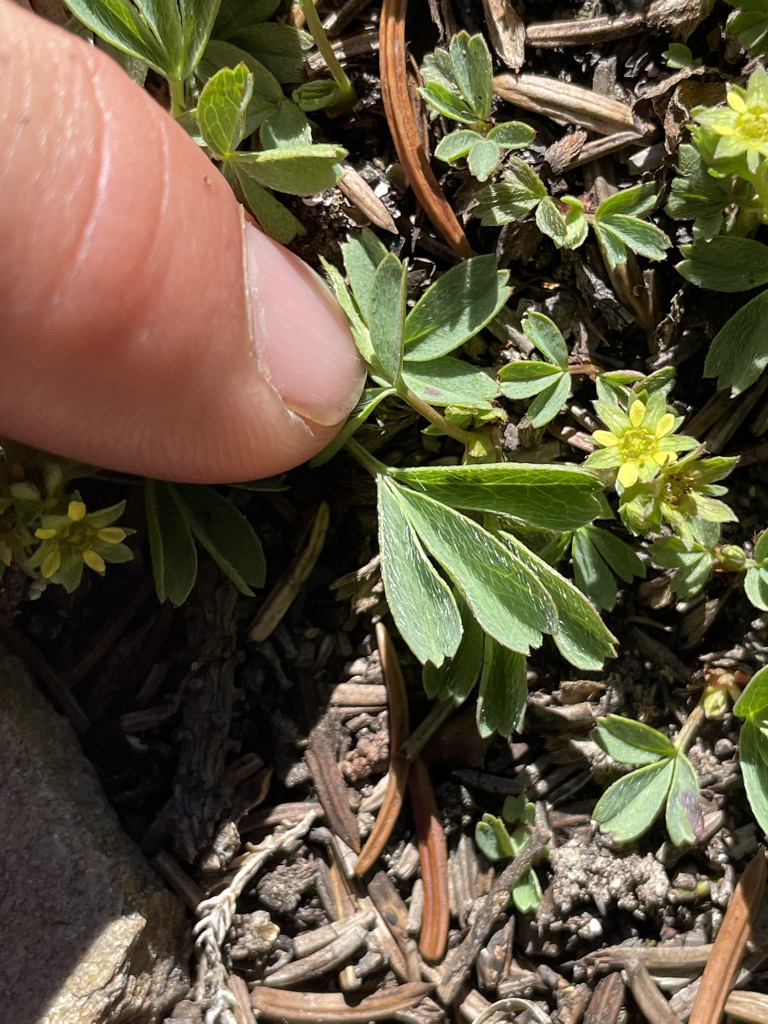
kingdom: Plantae
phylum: Tracheophyta
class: Magnoliopsida
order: Rosales
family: Rosaceae
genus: Sibbaldia
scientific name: Sibbaldia procumbens
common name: Creeping sibbaldia
